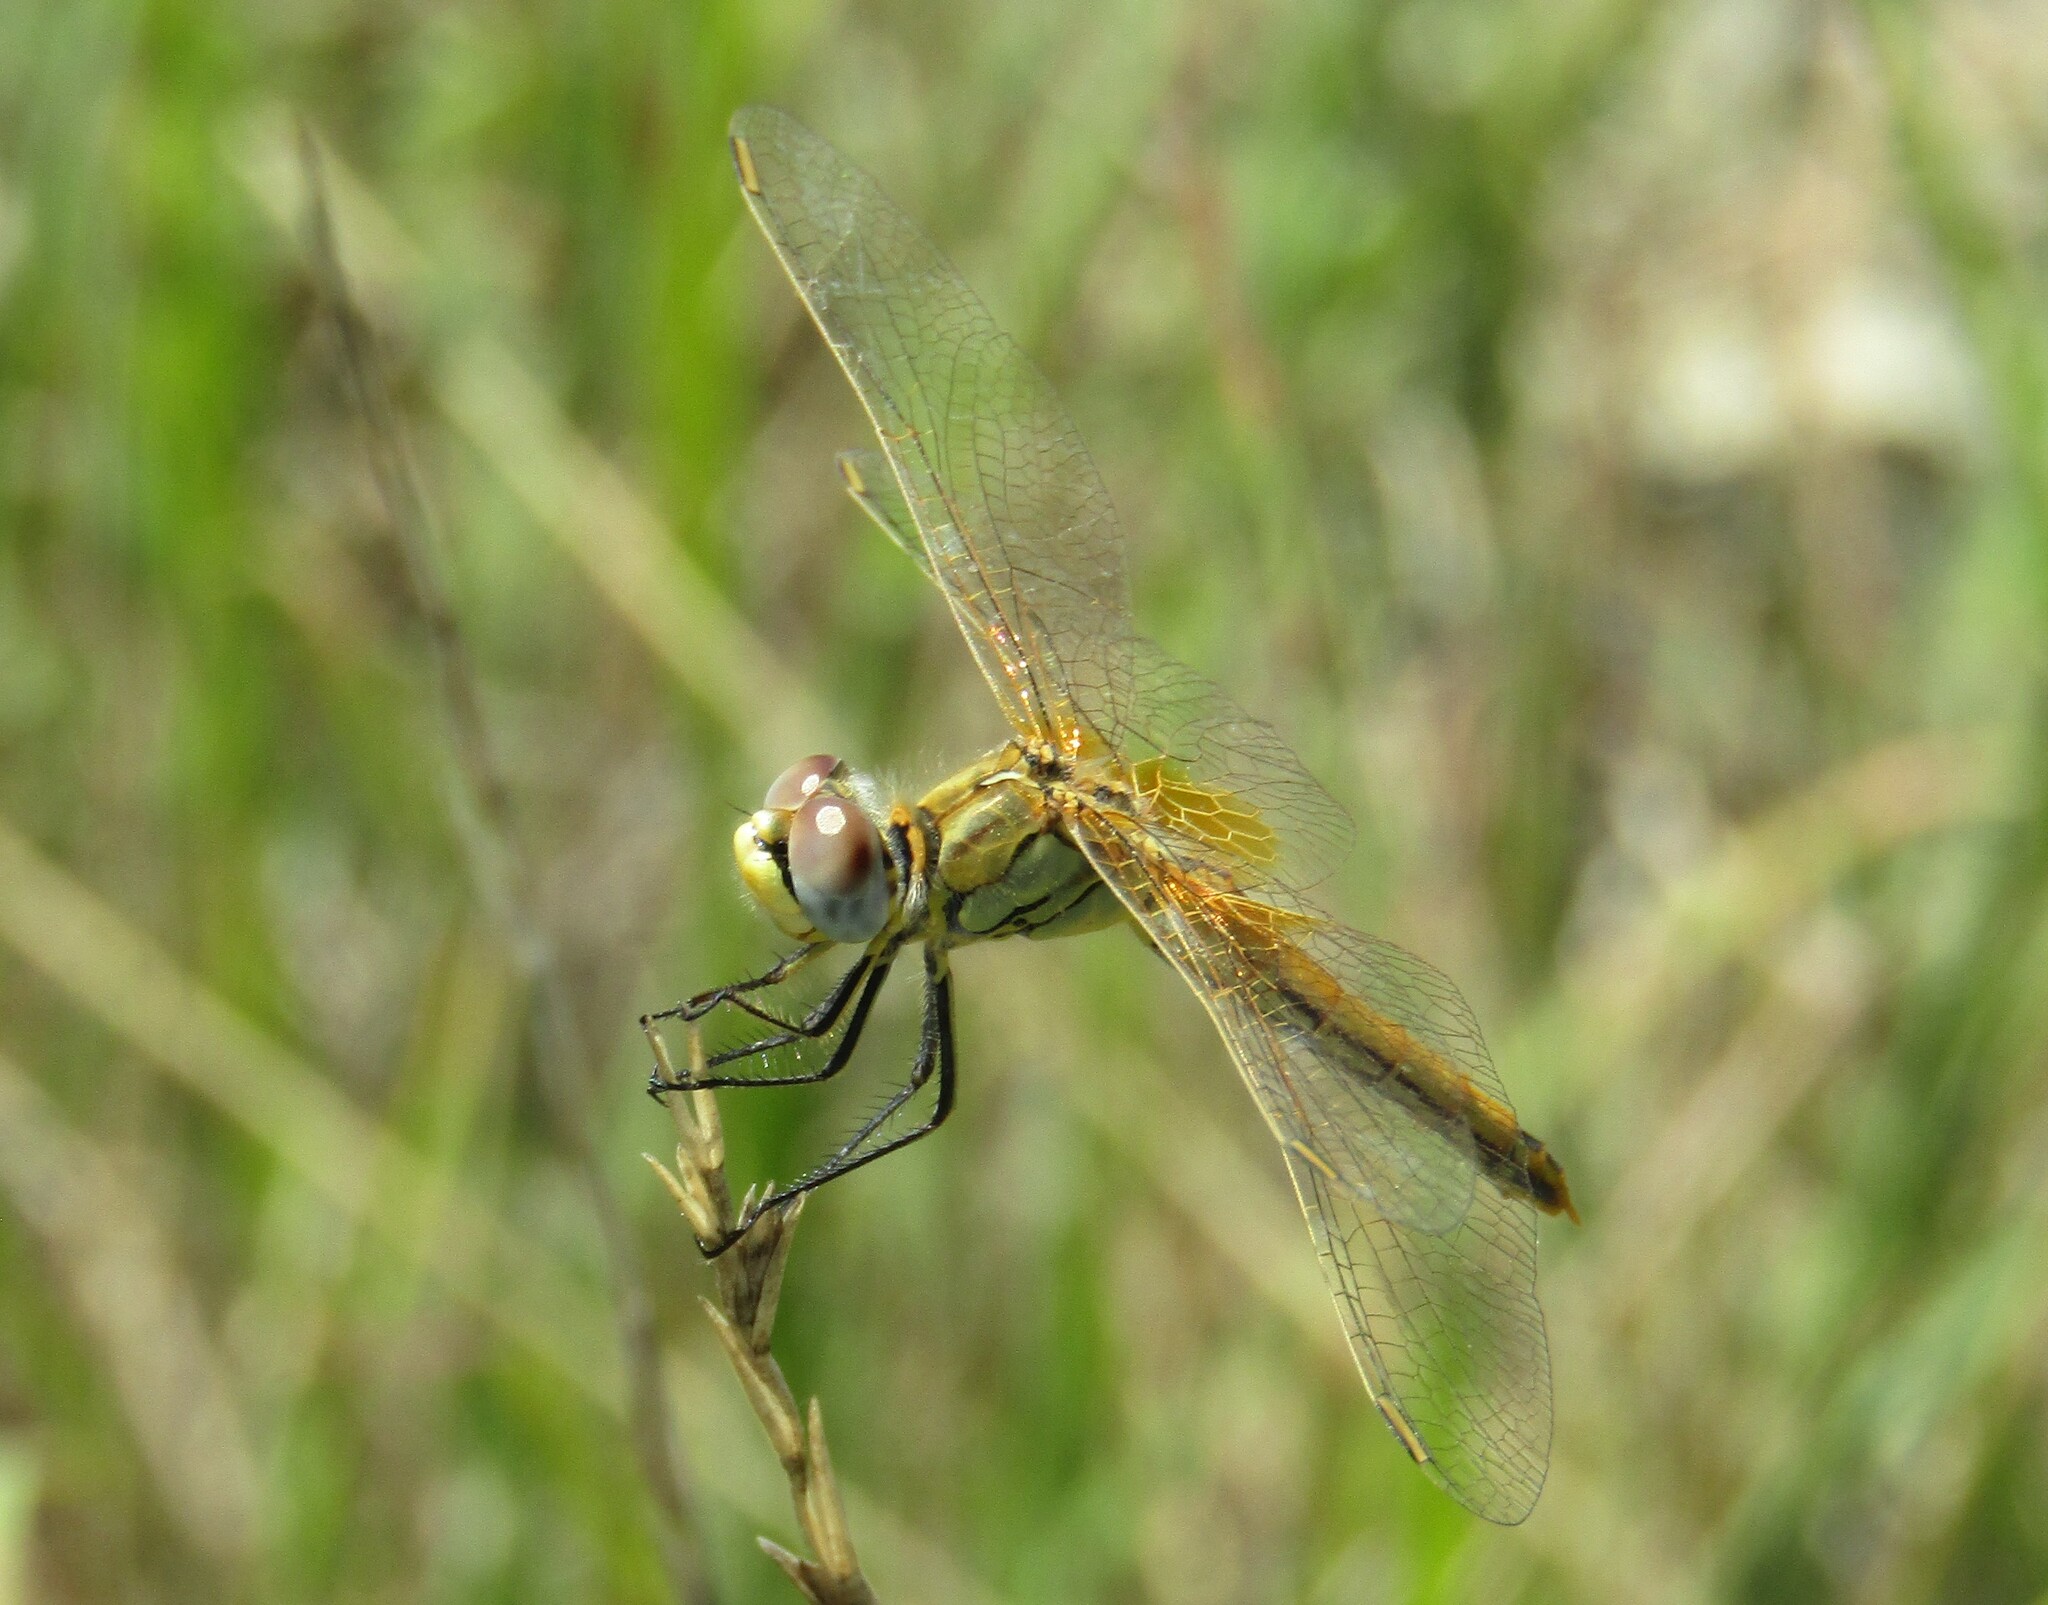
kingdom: Animalia
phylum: Arthropoda
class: Insecta
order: Odonata
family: Libellulidae
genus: Sympetrum
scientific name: Sympetrum fonscolombii
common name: Red-veined darter
